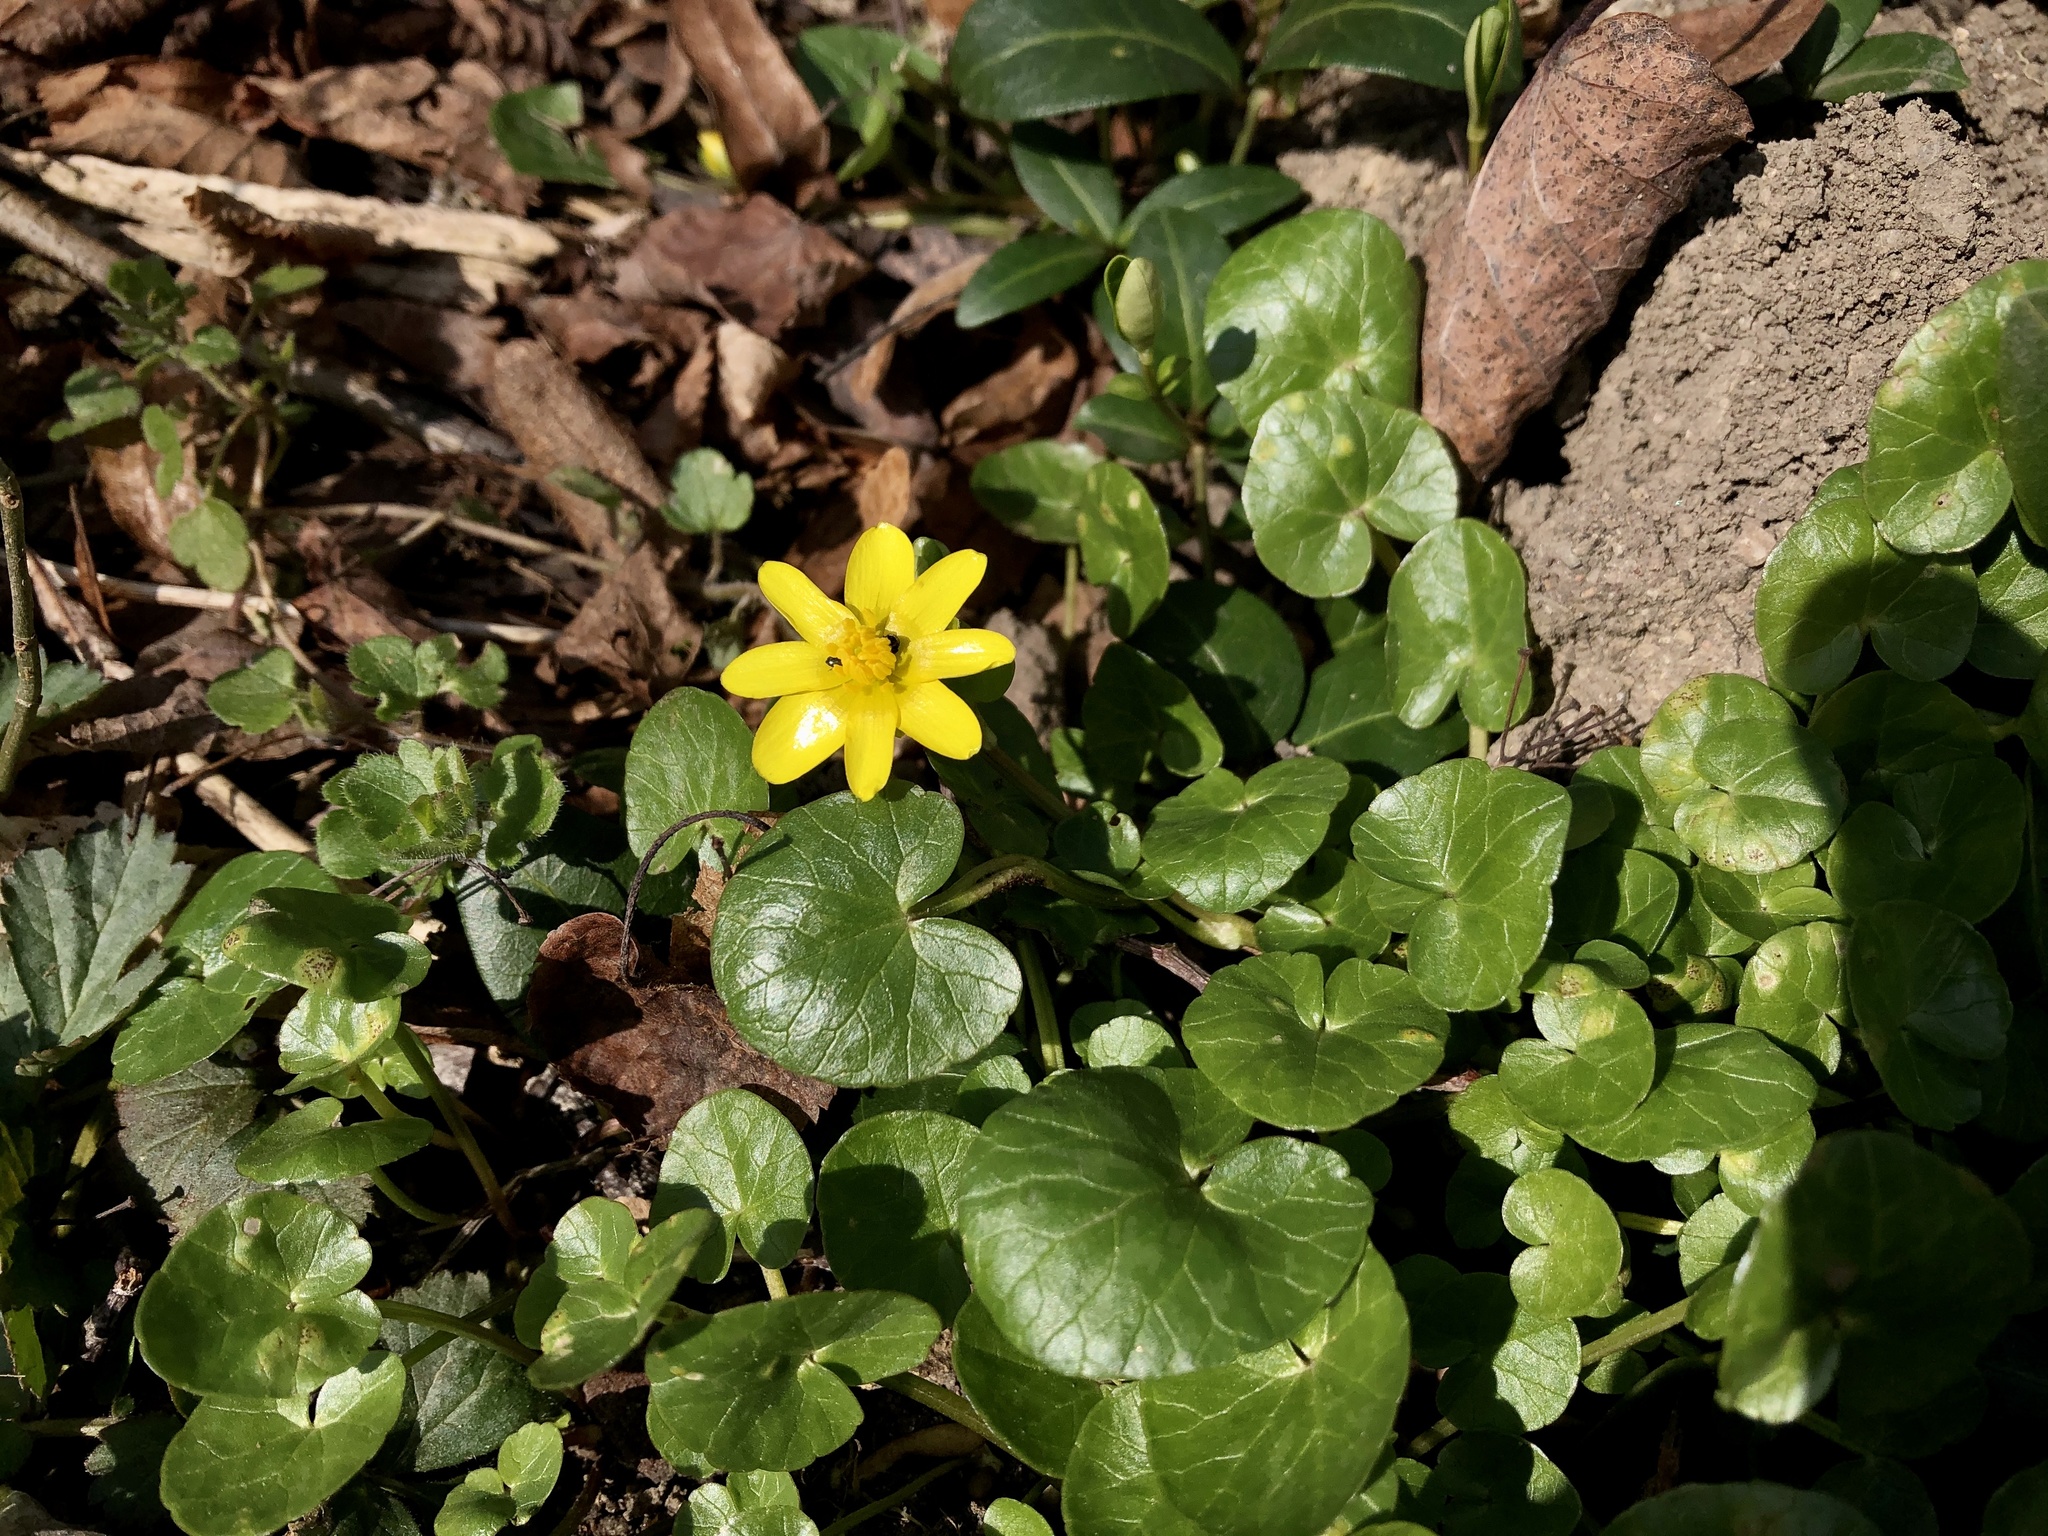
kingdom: Plantae
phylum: Tracheophyta
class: Magnoliopsida
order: Ranunculales
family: Ranunculaceae
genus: Ficaria
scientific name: Ficaria verna
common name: Lesser celandine
